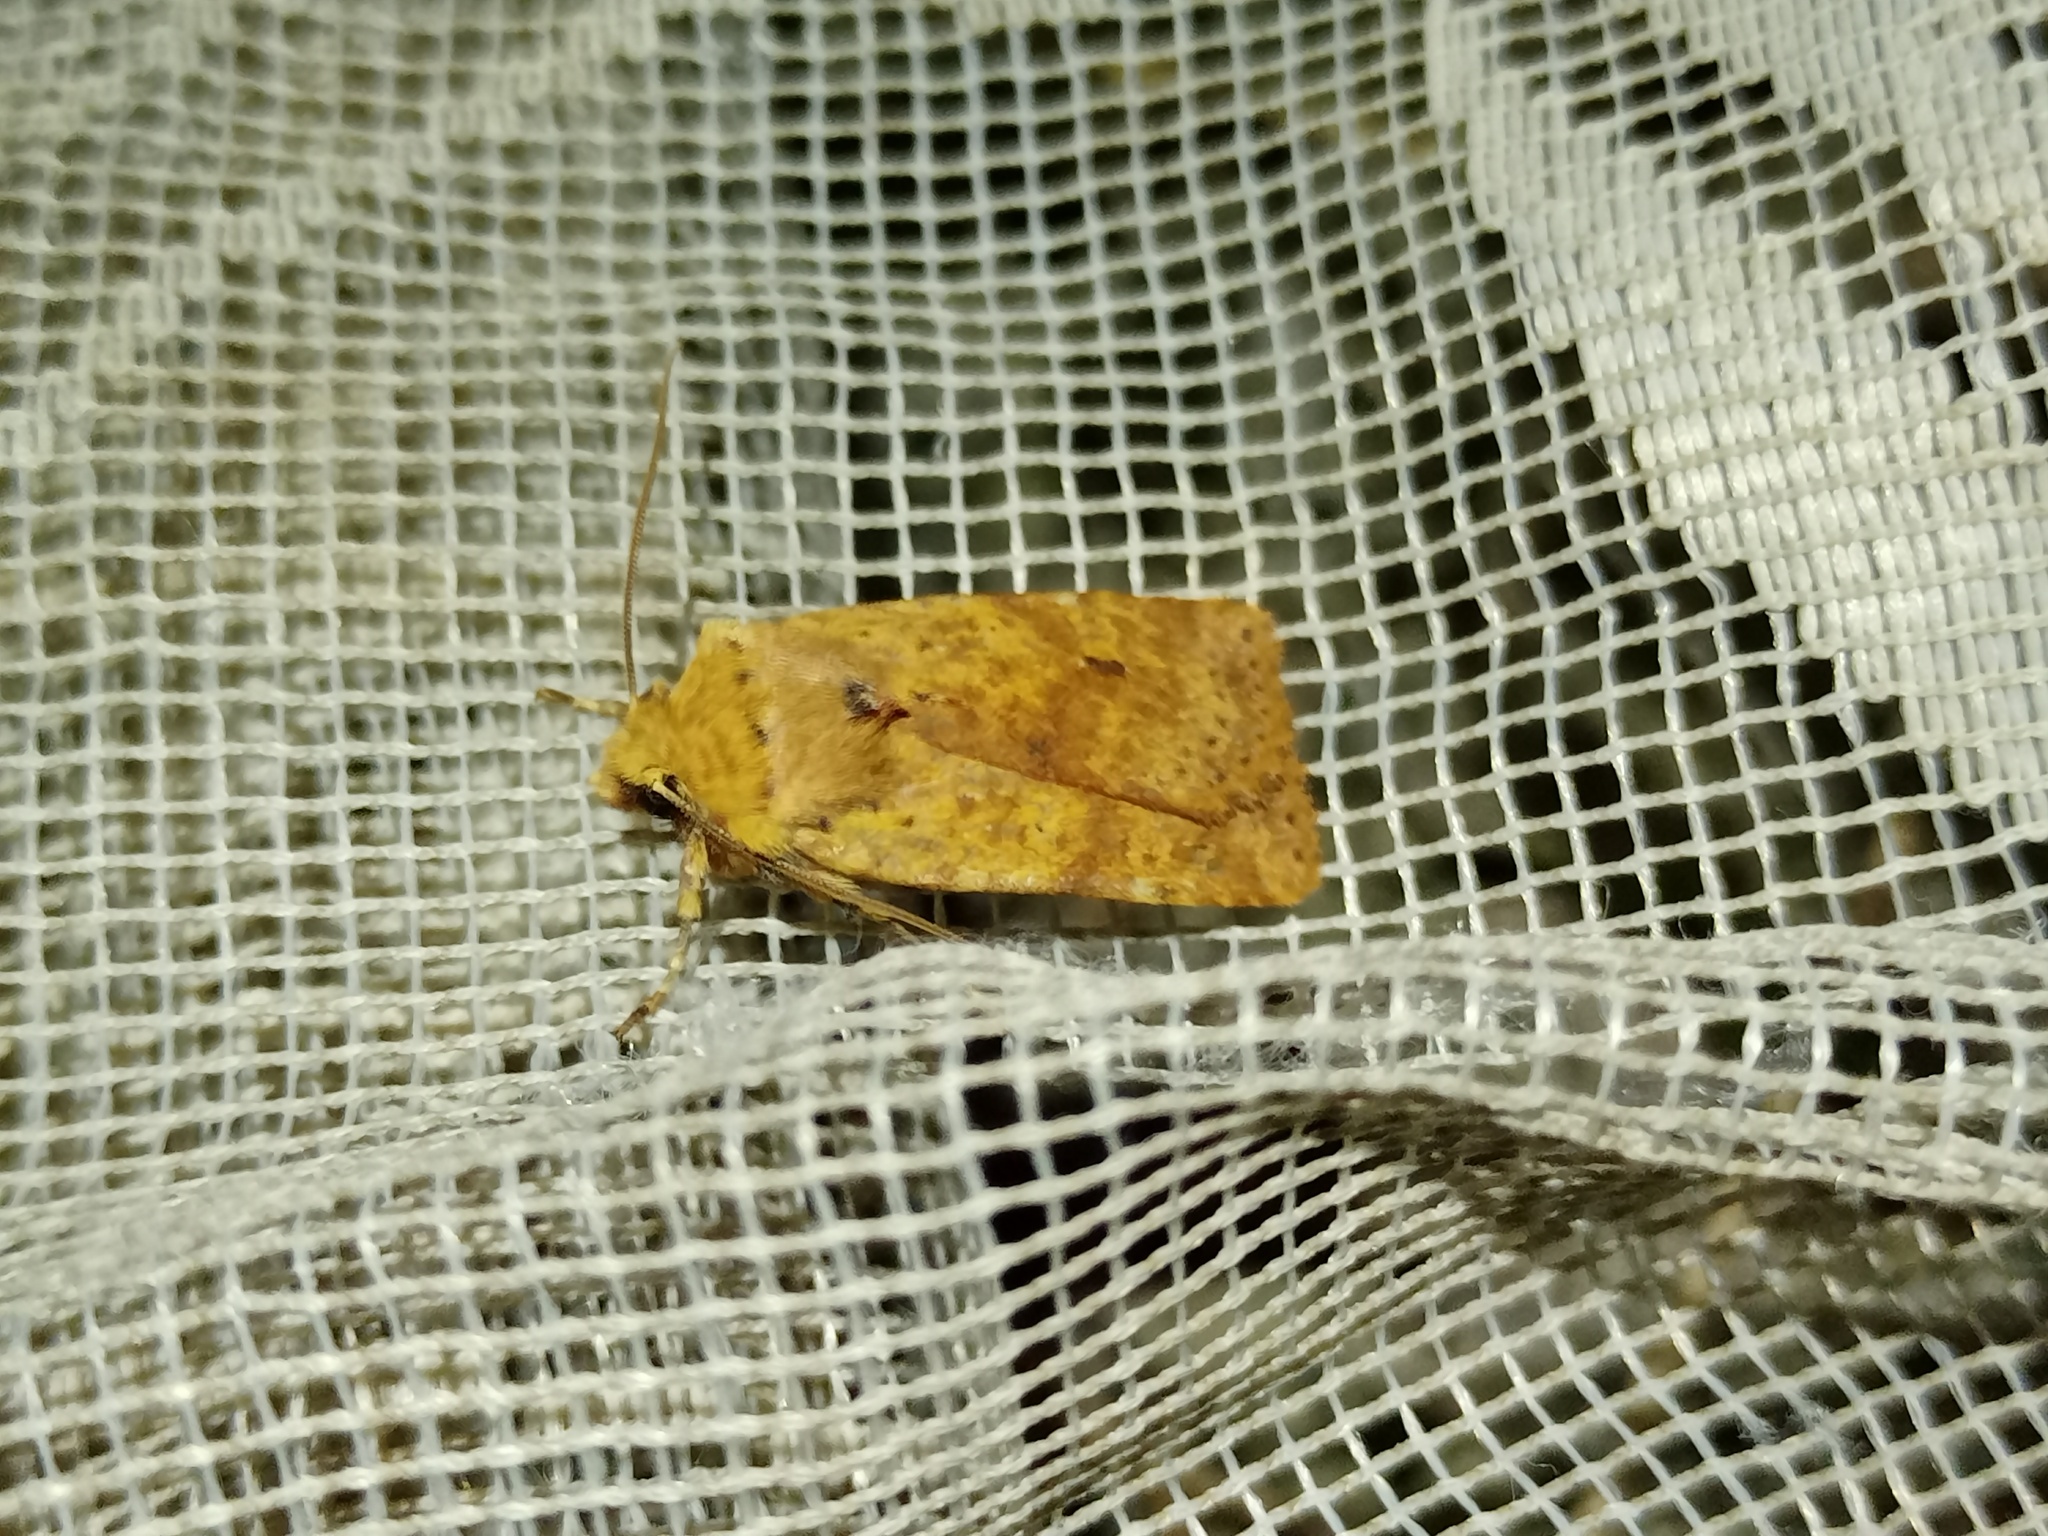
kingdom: Animalia
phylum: Arthropoda
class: Insecta
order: Lepidoptera
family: Noctuidae
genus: Conistra
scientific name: Conistra rubiginea
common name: Dotted chestnut
